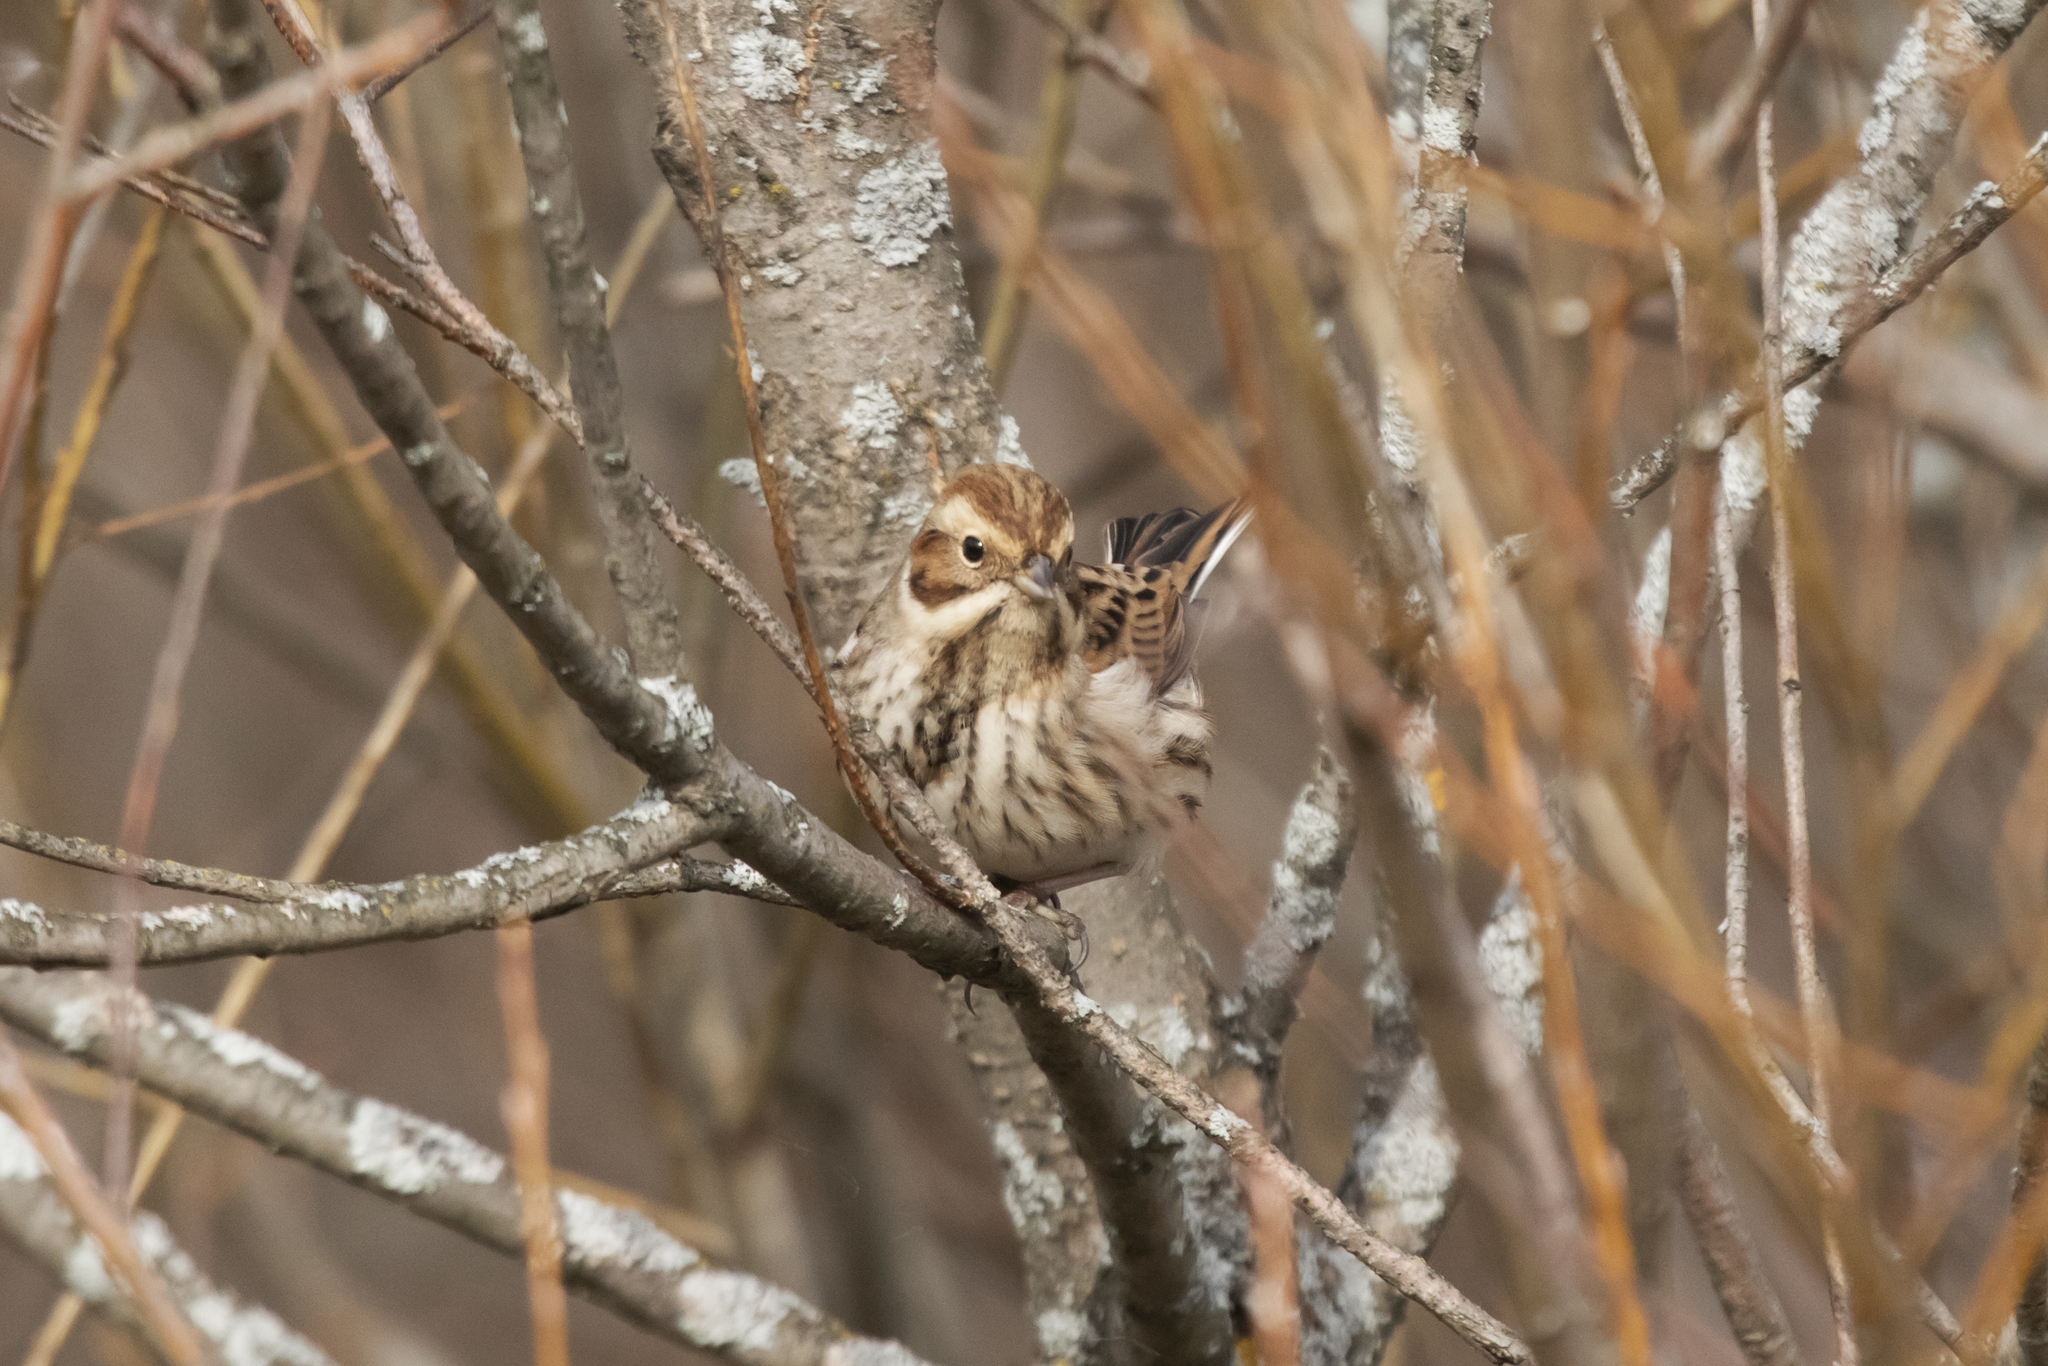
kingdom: Animalia
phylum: Chordata
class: Aves
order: Passeriformes
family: Emberizidae
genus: Emberiza
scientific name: Emberiza schoeniclus
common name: Reed bunting
